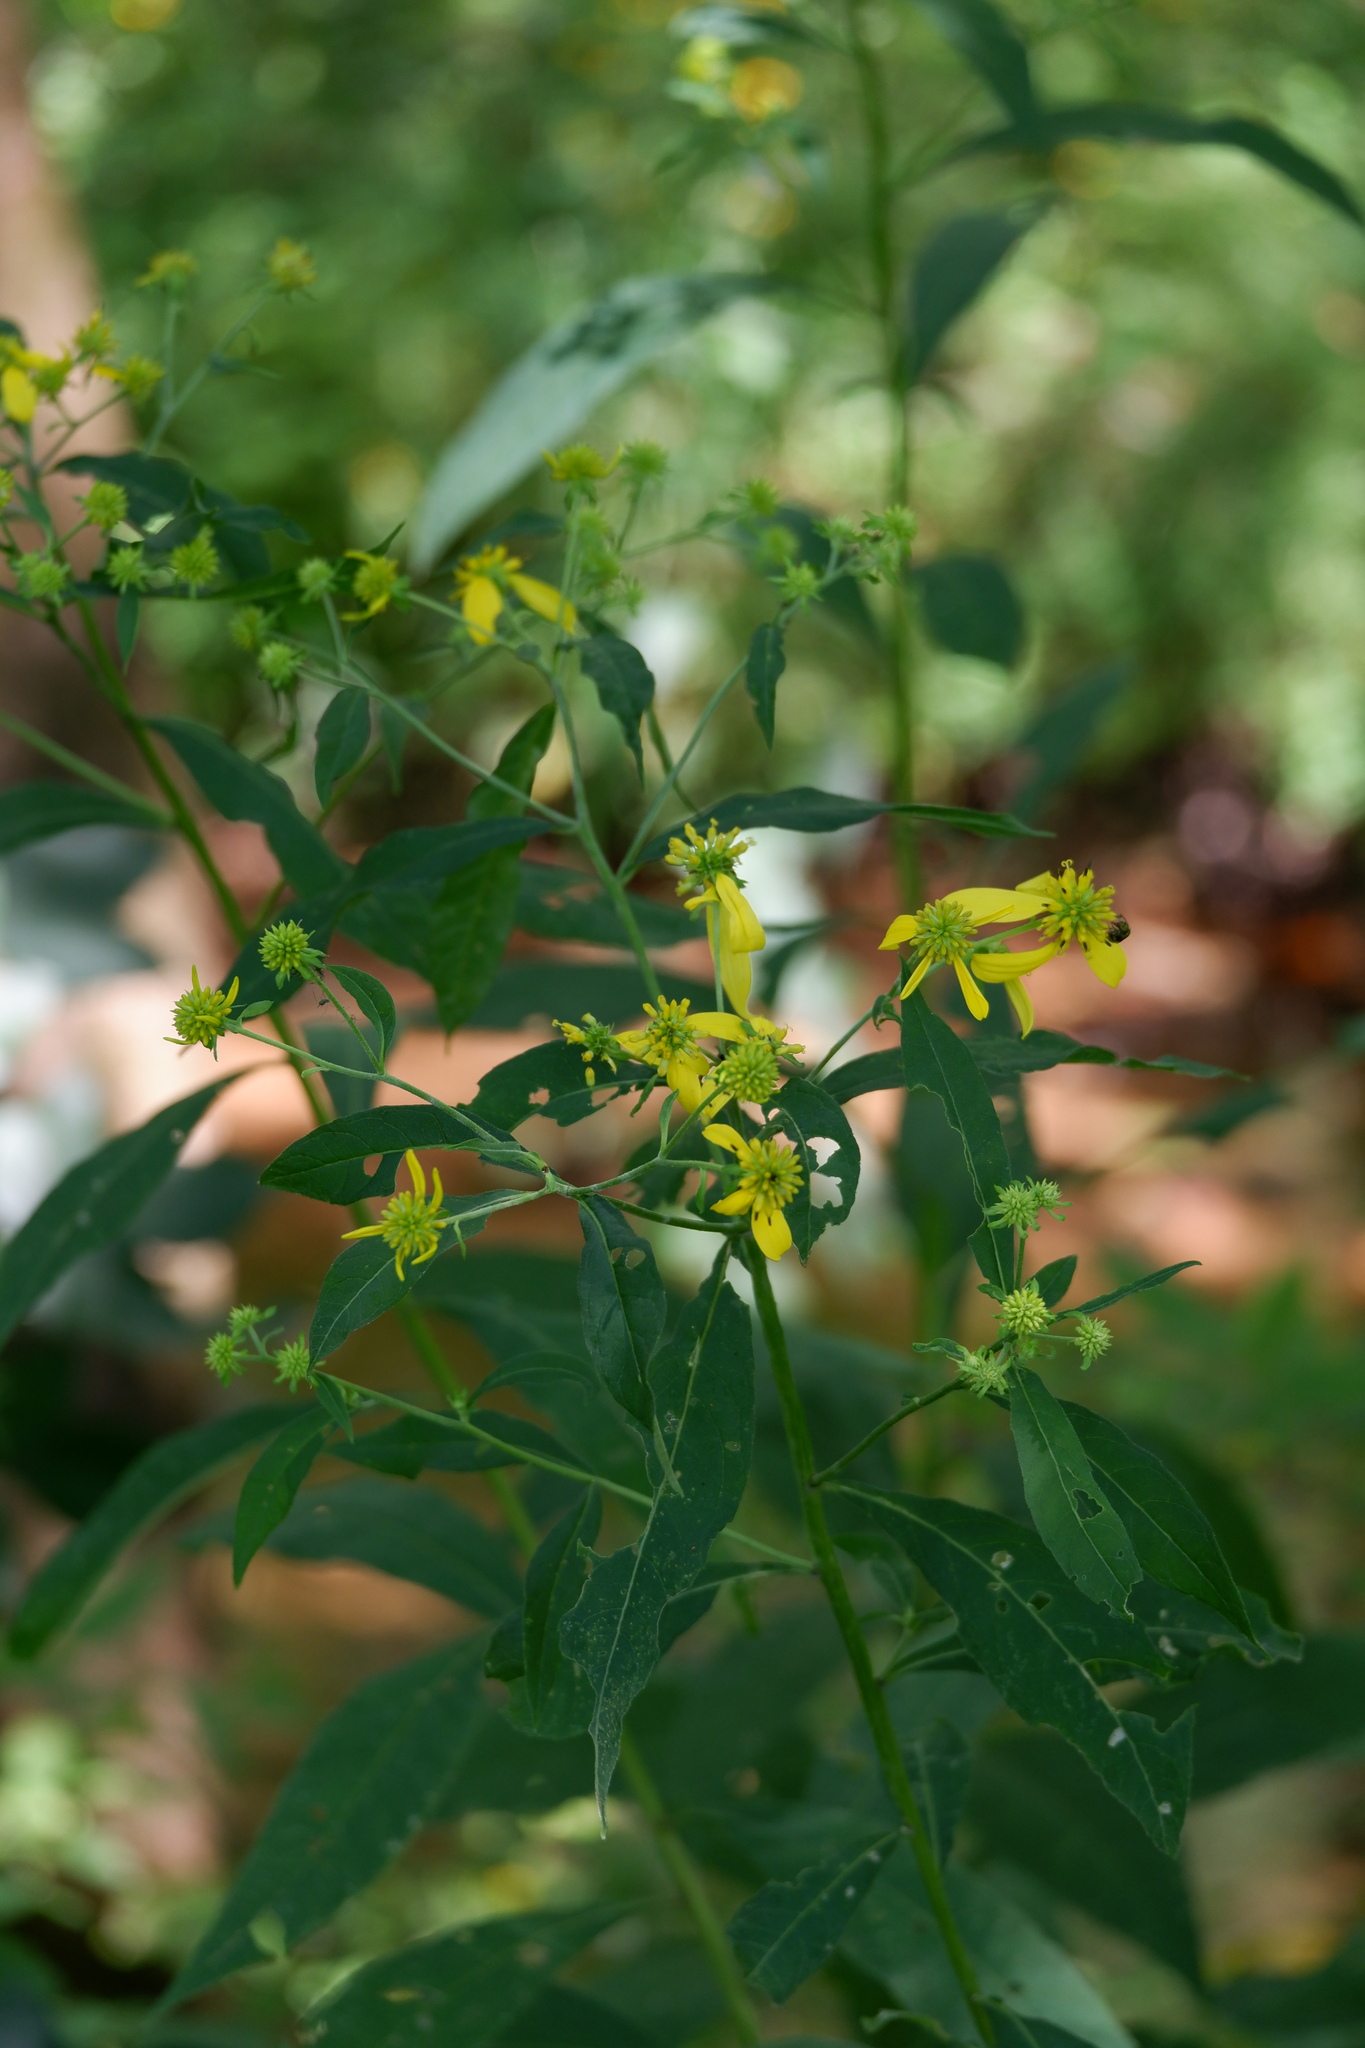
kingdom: Plantae
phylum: Tracheophyta
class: Magnoliopsida
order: Asterales
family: Asteraceae
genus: Verbesina
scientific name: Verbesina alternifolia
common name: Wingstem
